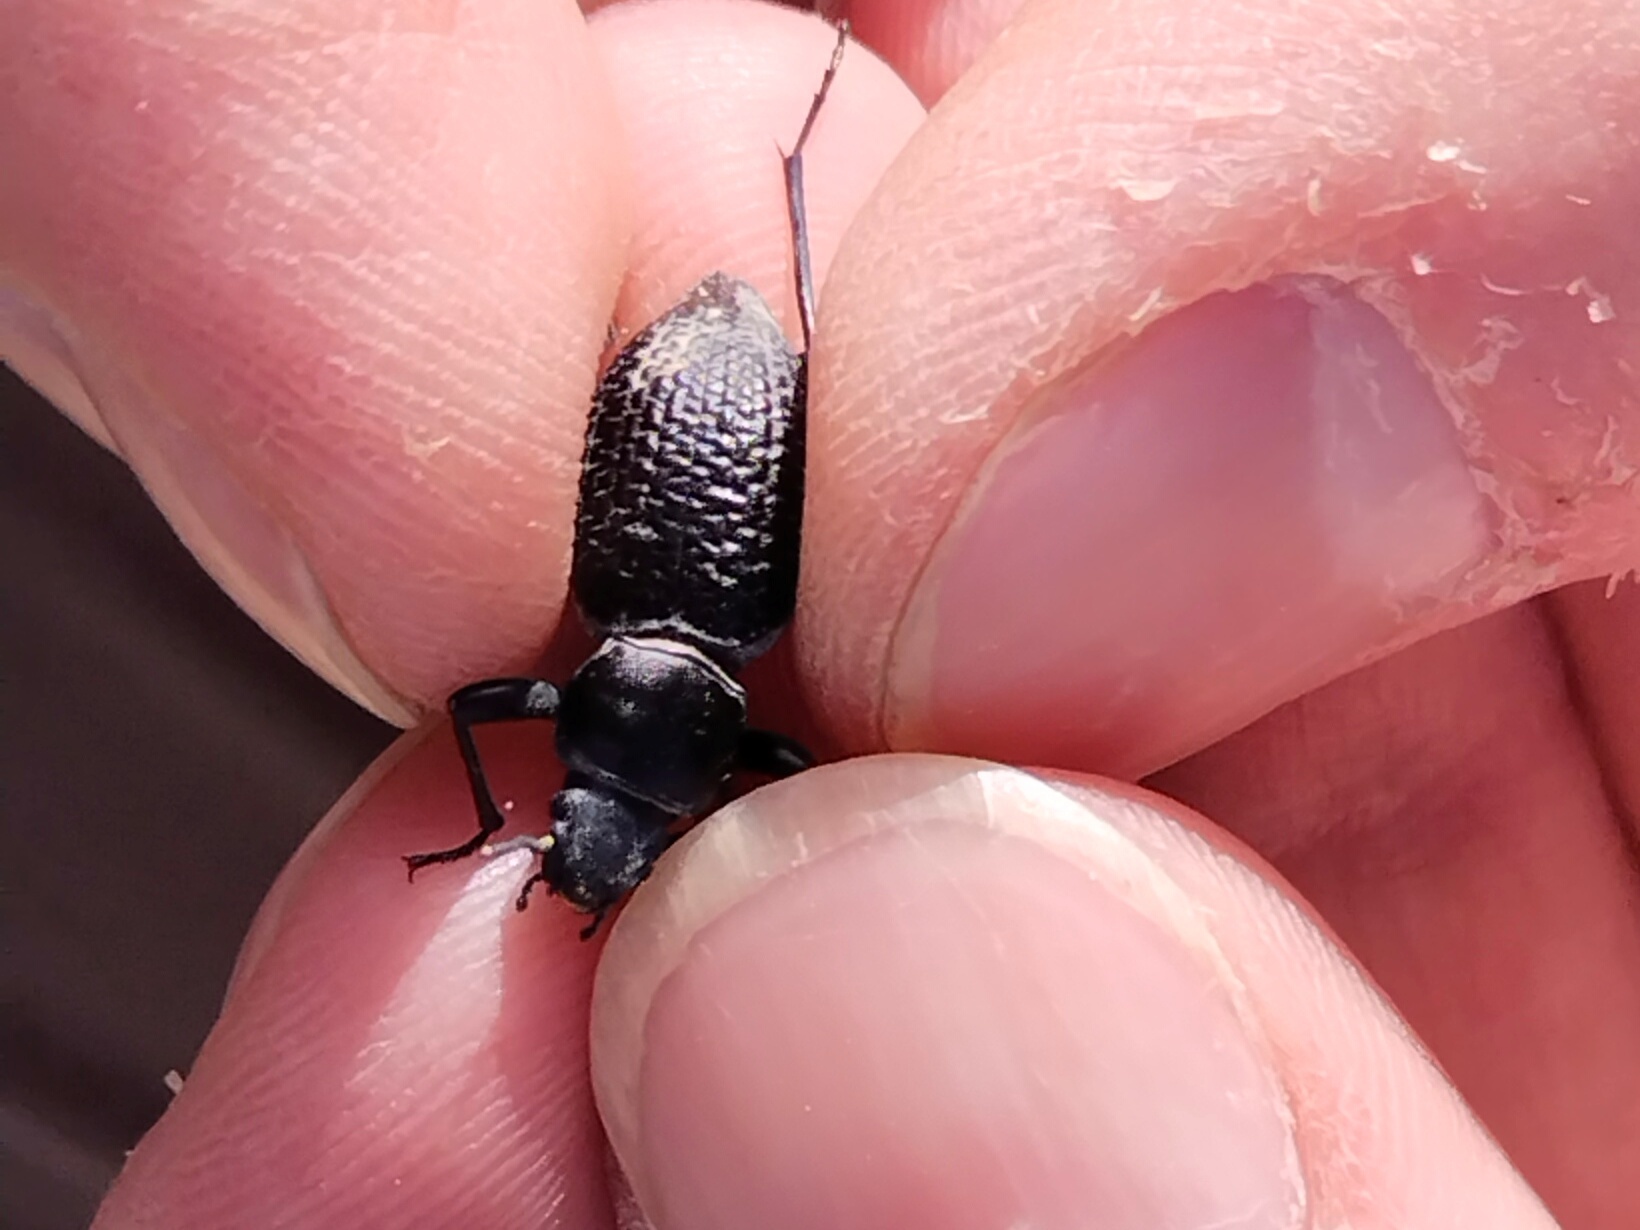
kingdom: Animalia
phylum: Arthropoda
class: Insecta
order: Coleoptera
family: Tenebrionidae
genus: Tentyria
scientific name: Tentyria
